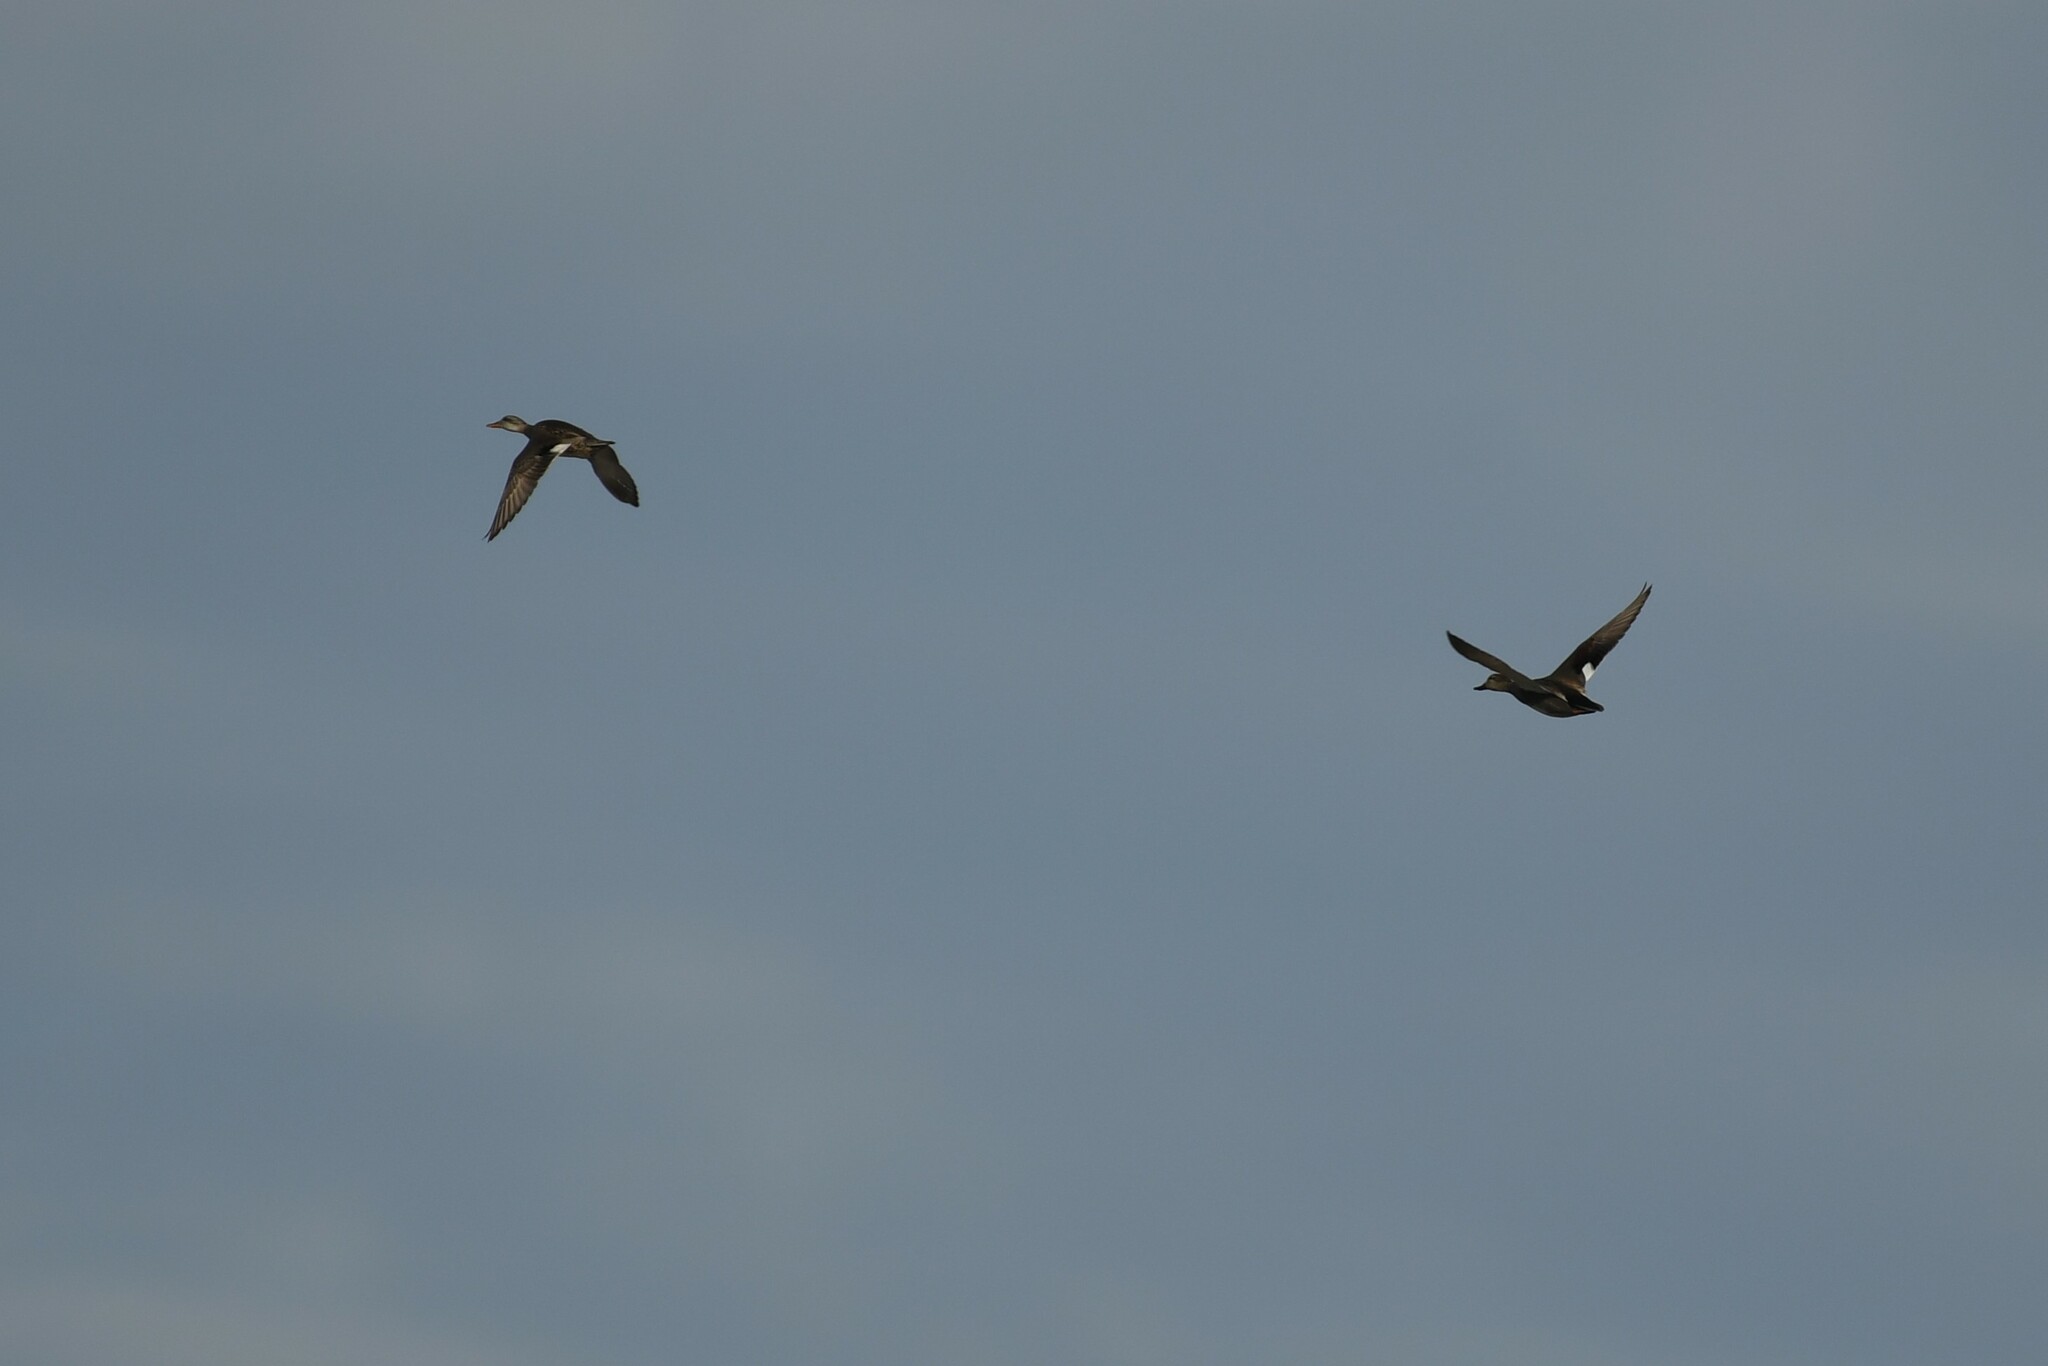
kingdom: Animalia
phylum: Chordata
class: Aves
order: Anseriformes
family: Anatidae
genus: Mareca
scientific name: Mareca strepera
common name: Gadwall
